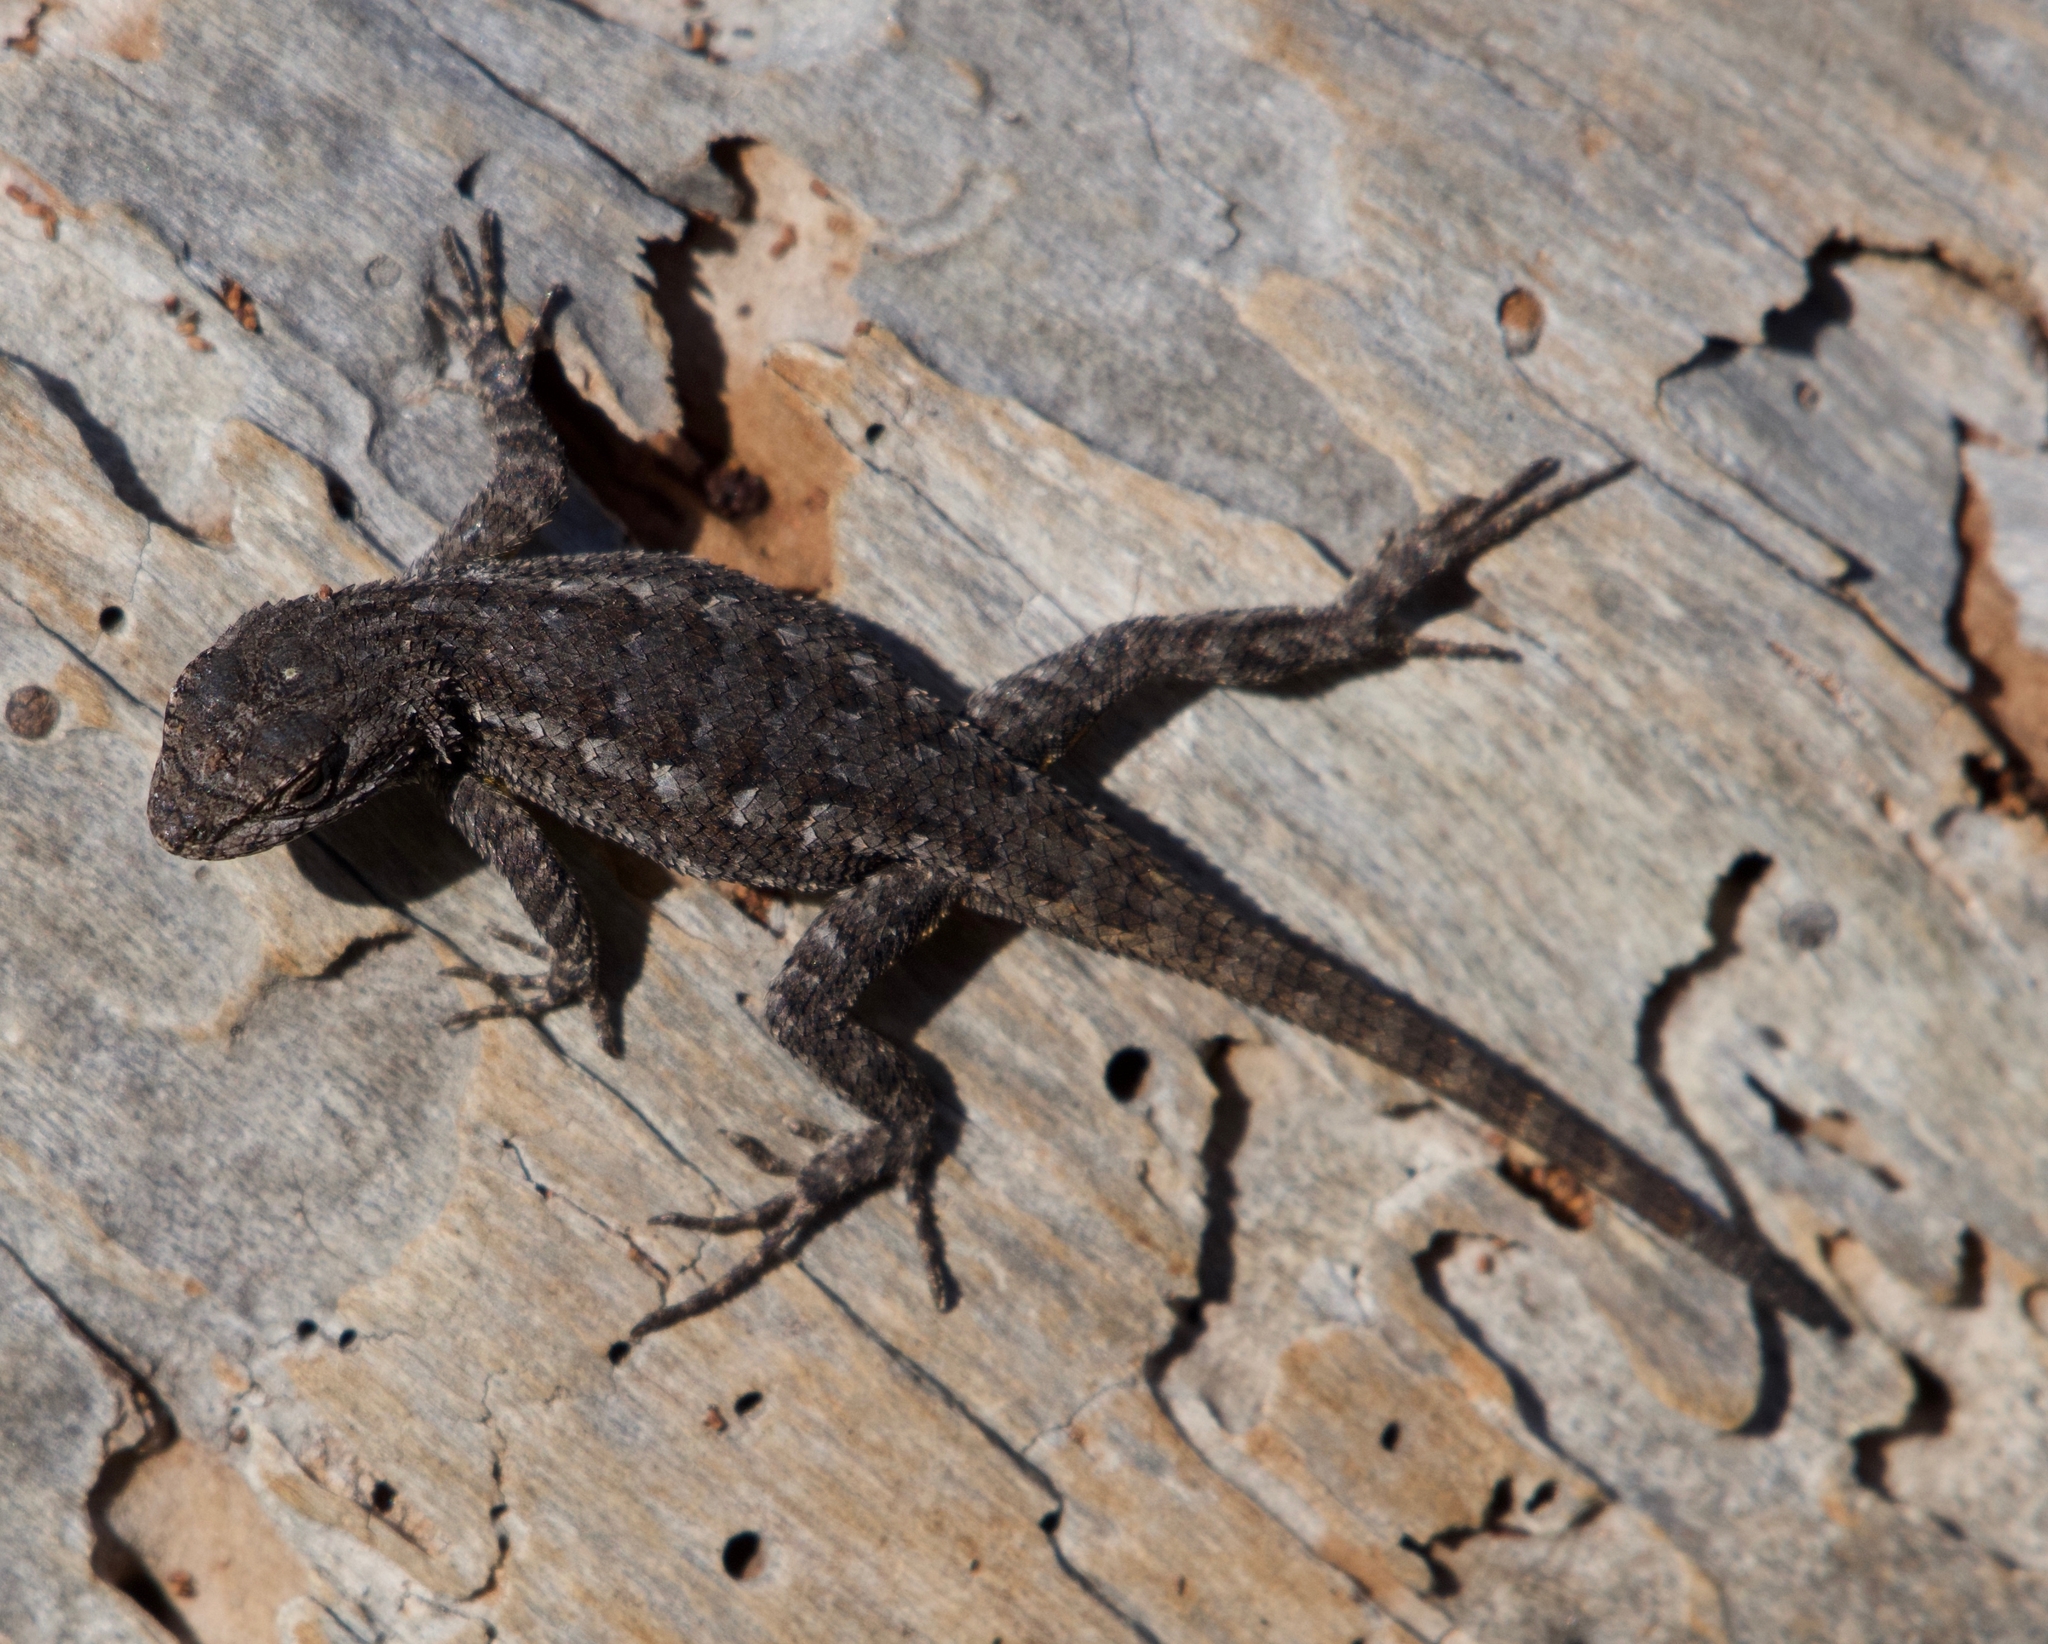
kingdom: Animalia
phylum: Chordata
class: Squamata
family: Phrynosomatidae
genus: Sceloporus
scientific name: Sceloporus occidentalis
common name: Western fence lizard
